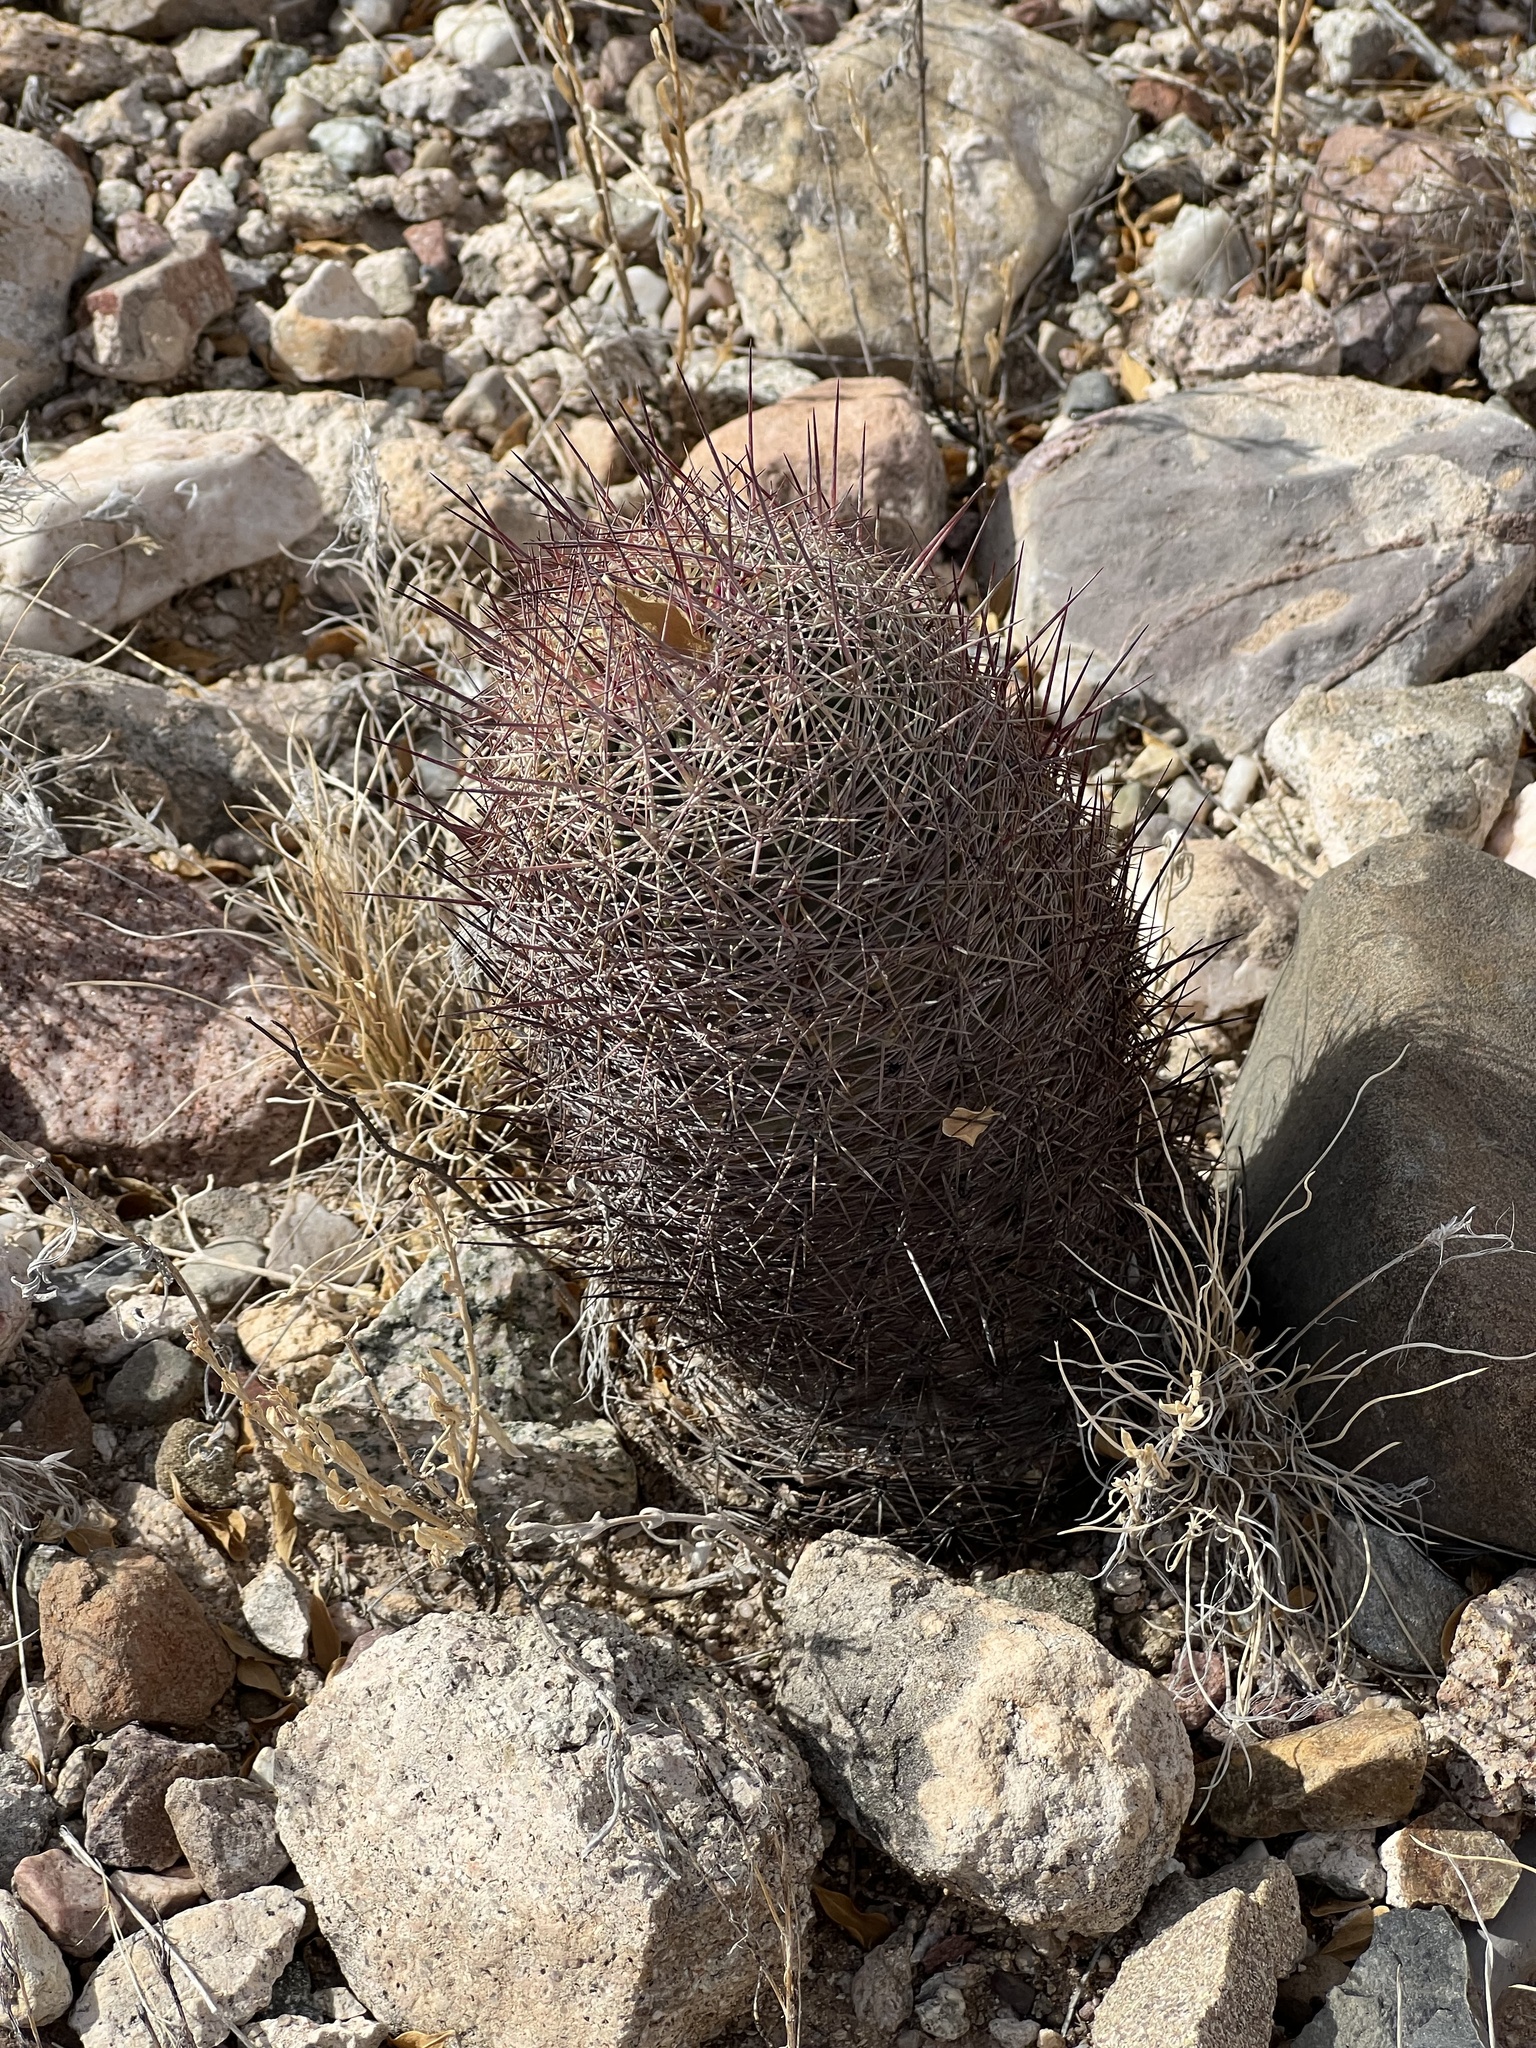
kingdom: Plantae
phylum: Tracheophyta
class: Magnoliopsida
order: Caryophyllales
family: Cactaceae
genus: Sclerocactus
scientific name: Sclerocactus johnsonii
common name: Eight-spine fishhook cactus
